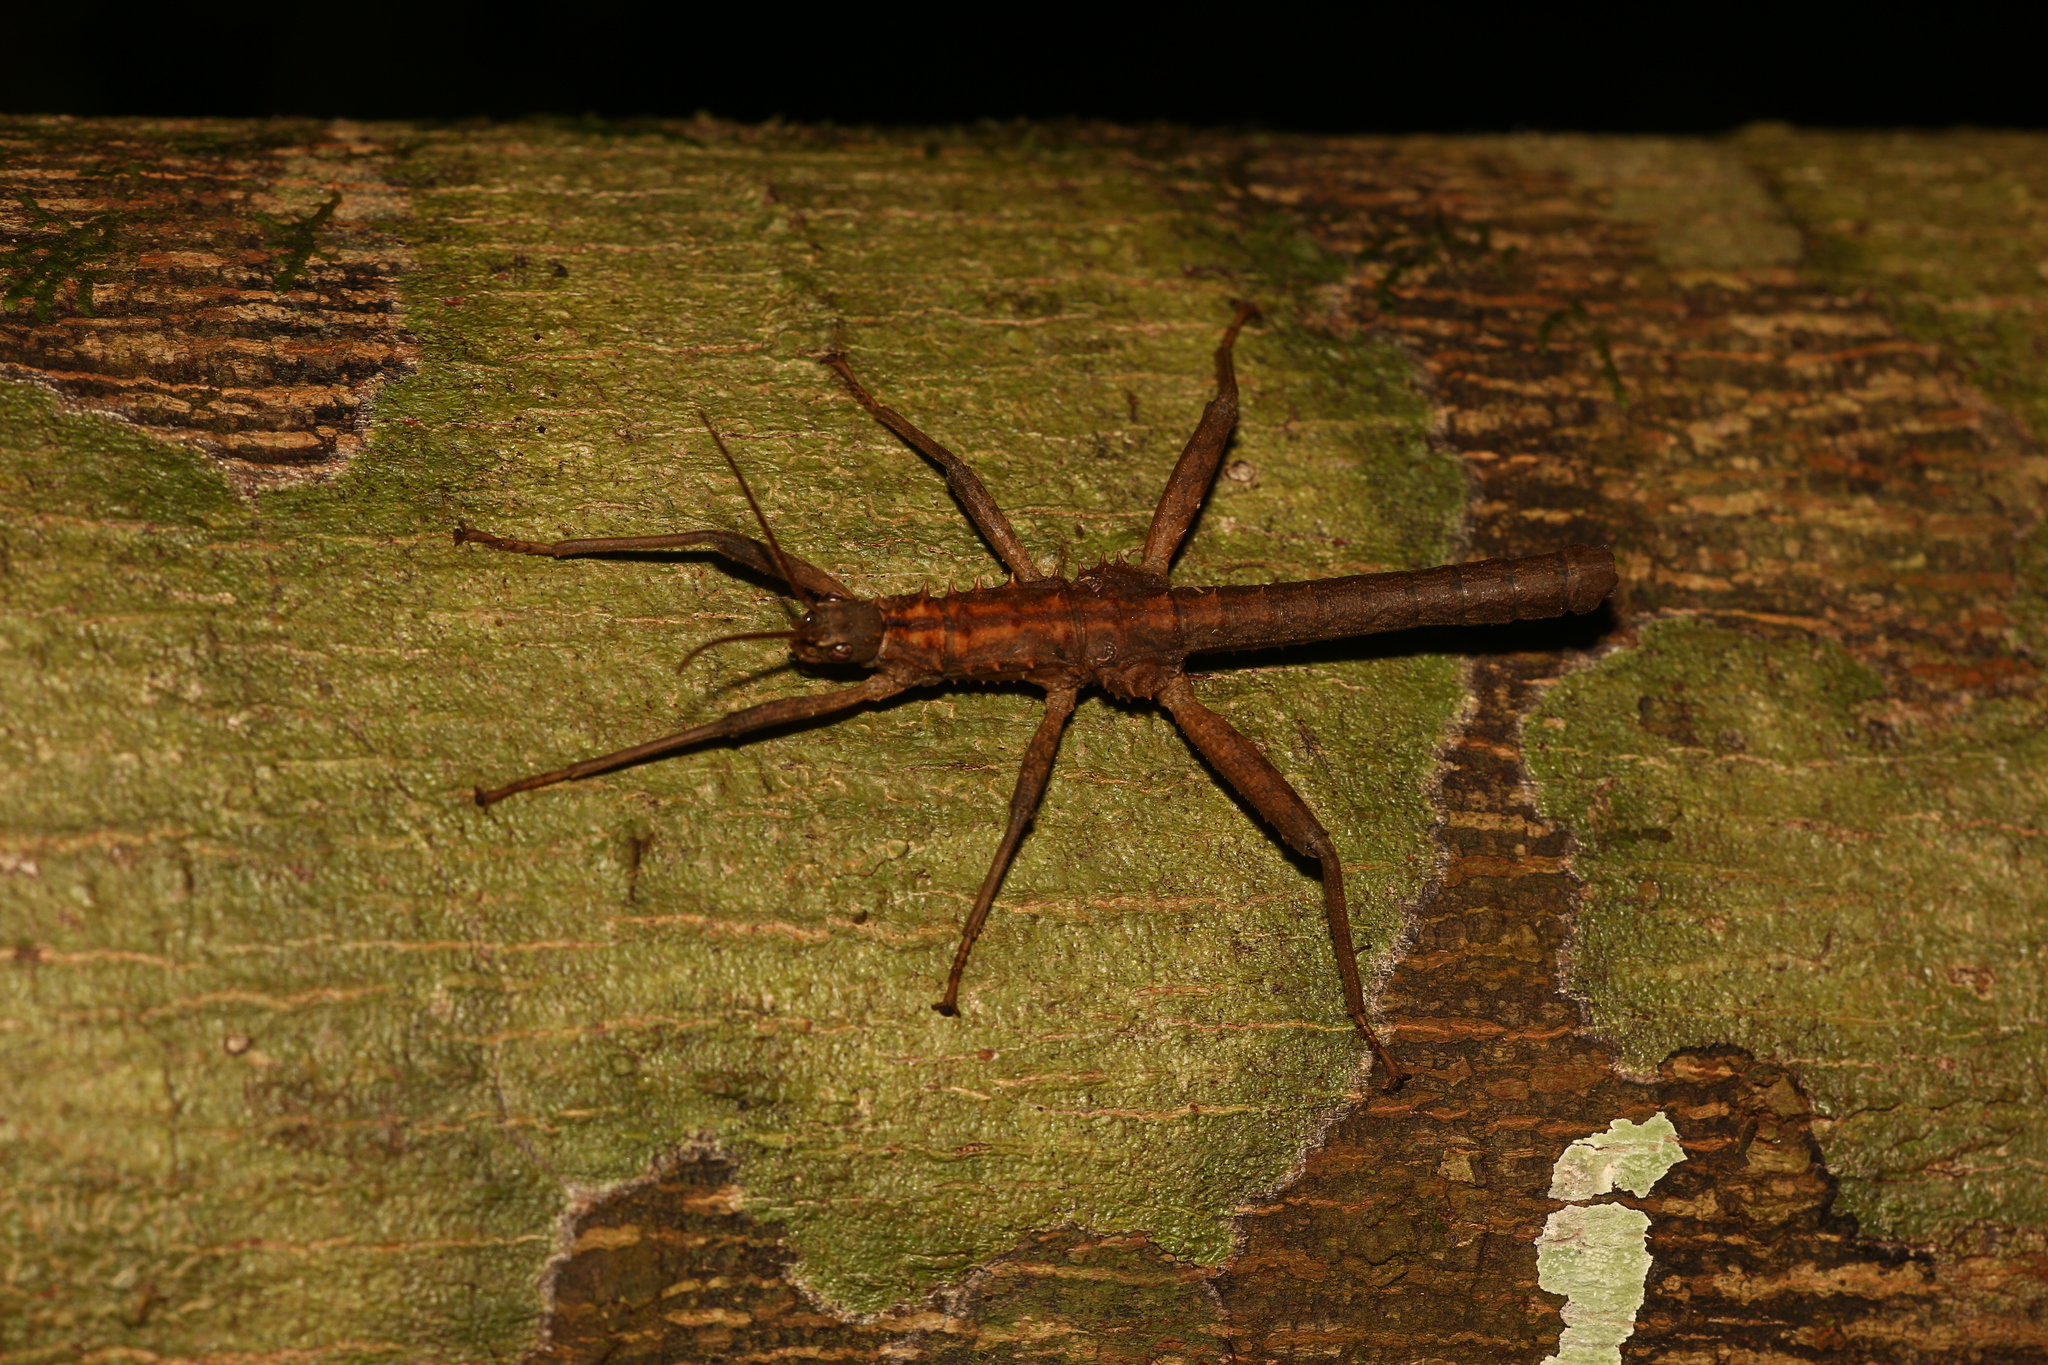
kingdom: Animalia
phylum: Arthropoda
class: Insecta
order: Phasmida
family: Lonchodidae
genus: Canachus
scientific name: Canachus alligator
